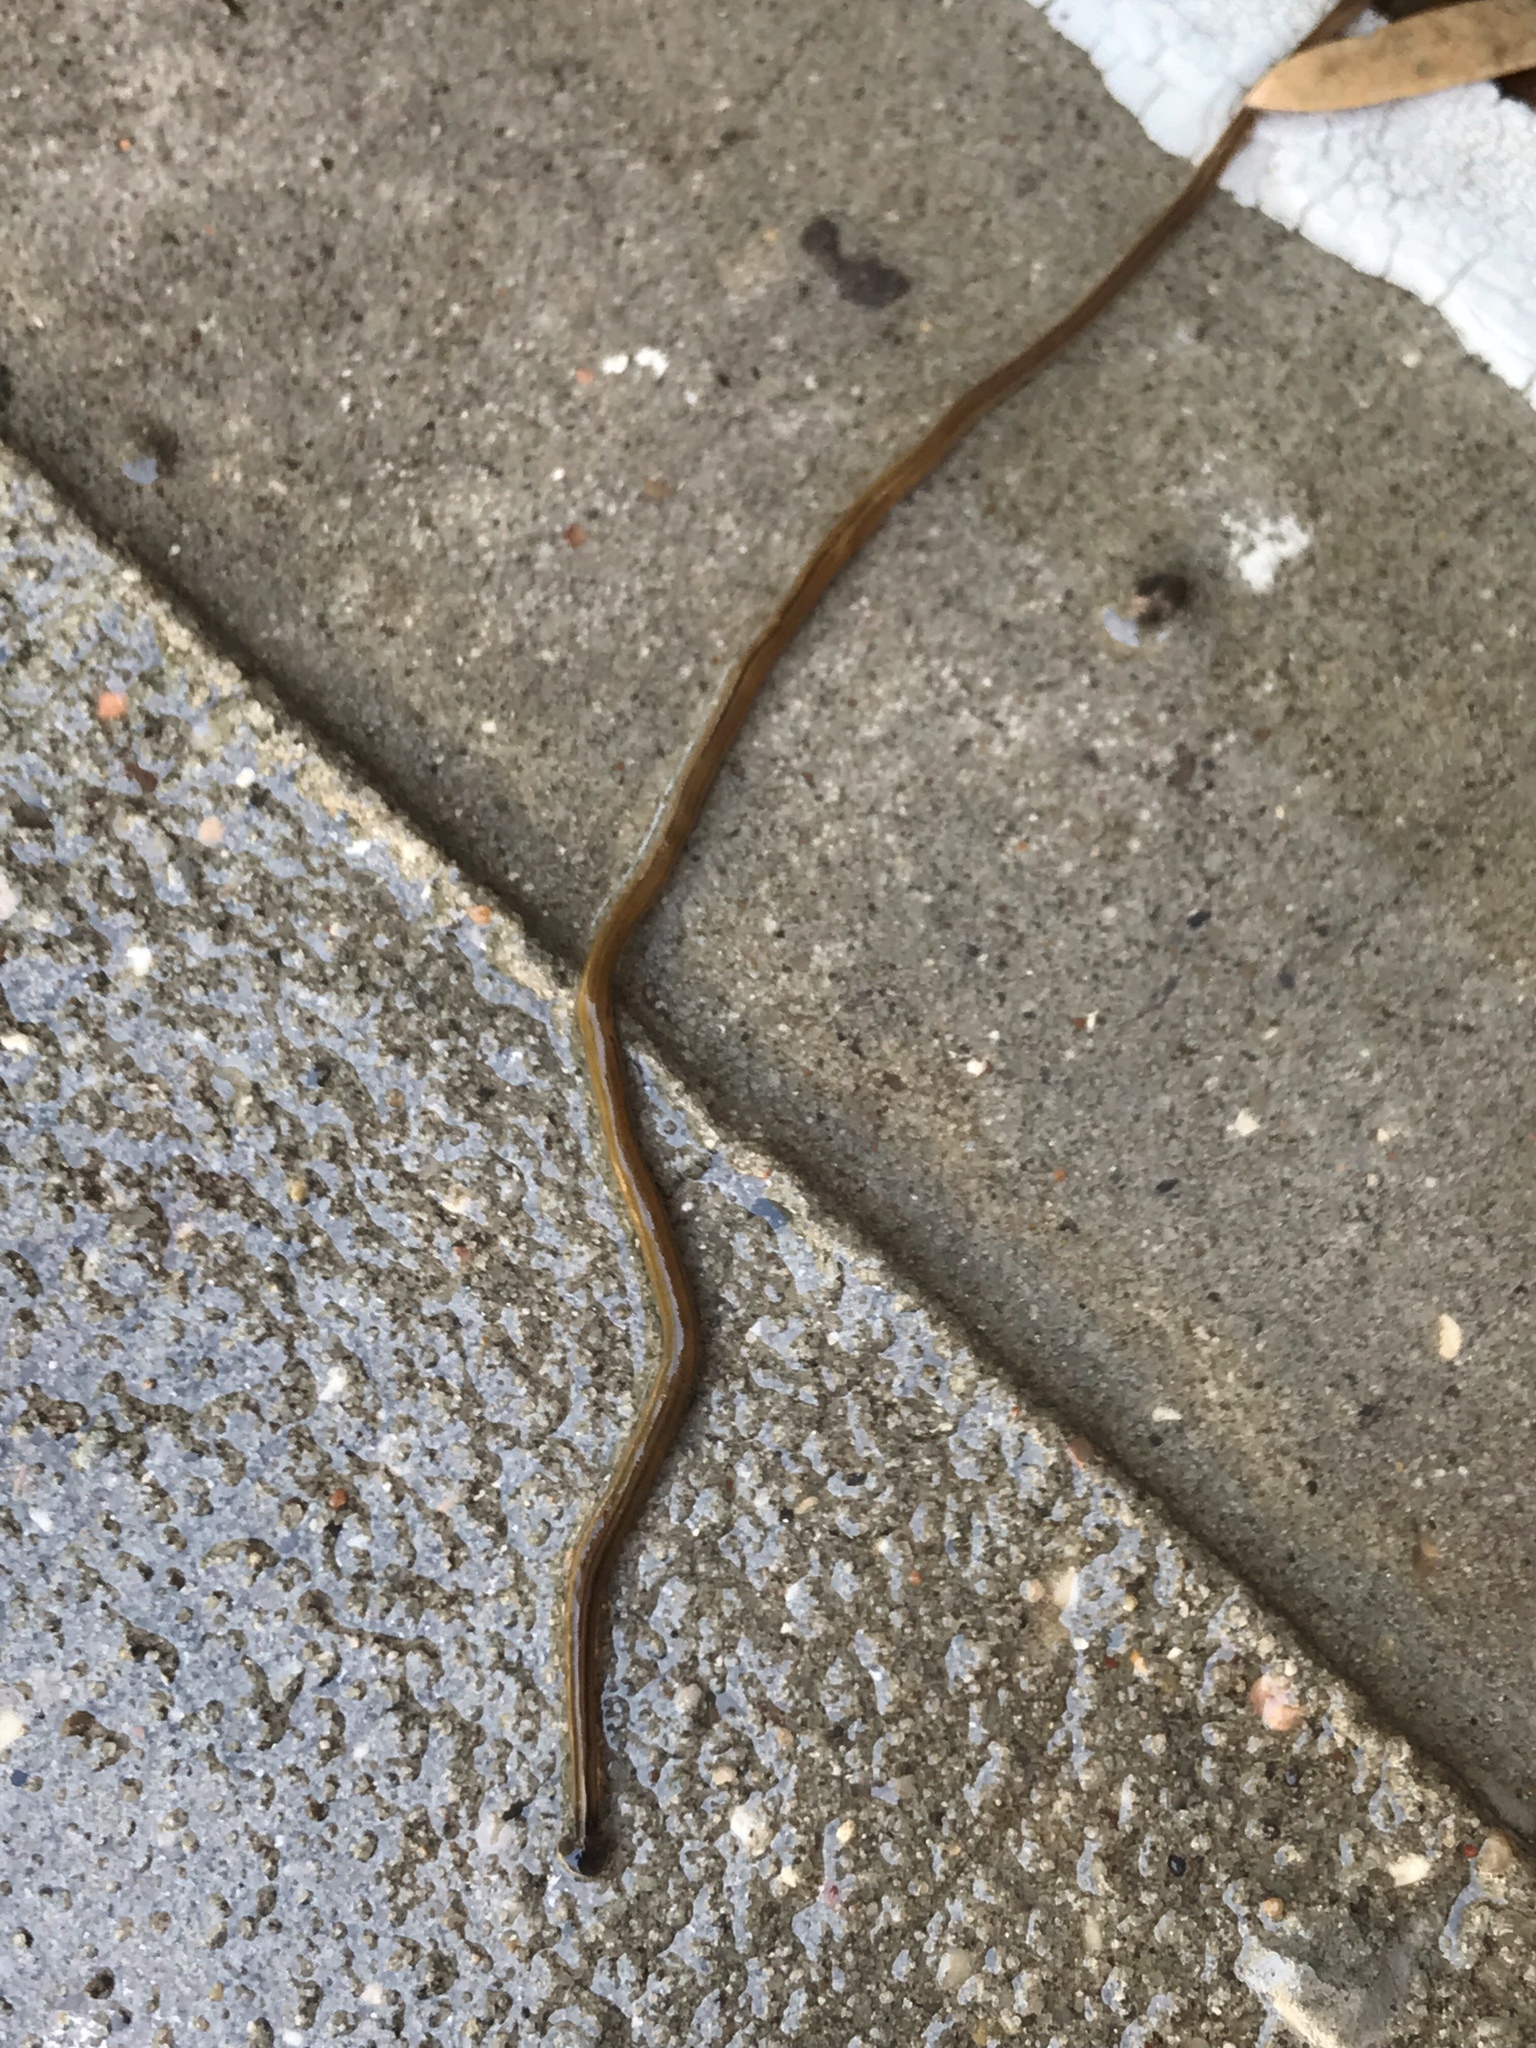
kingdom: Animalia
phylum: Platyhelminthes
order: Tricladida
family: Geoplanidae
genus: Bipalium
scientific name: Bipalium kewense
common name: Hammerhead flatworm
